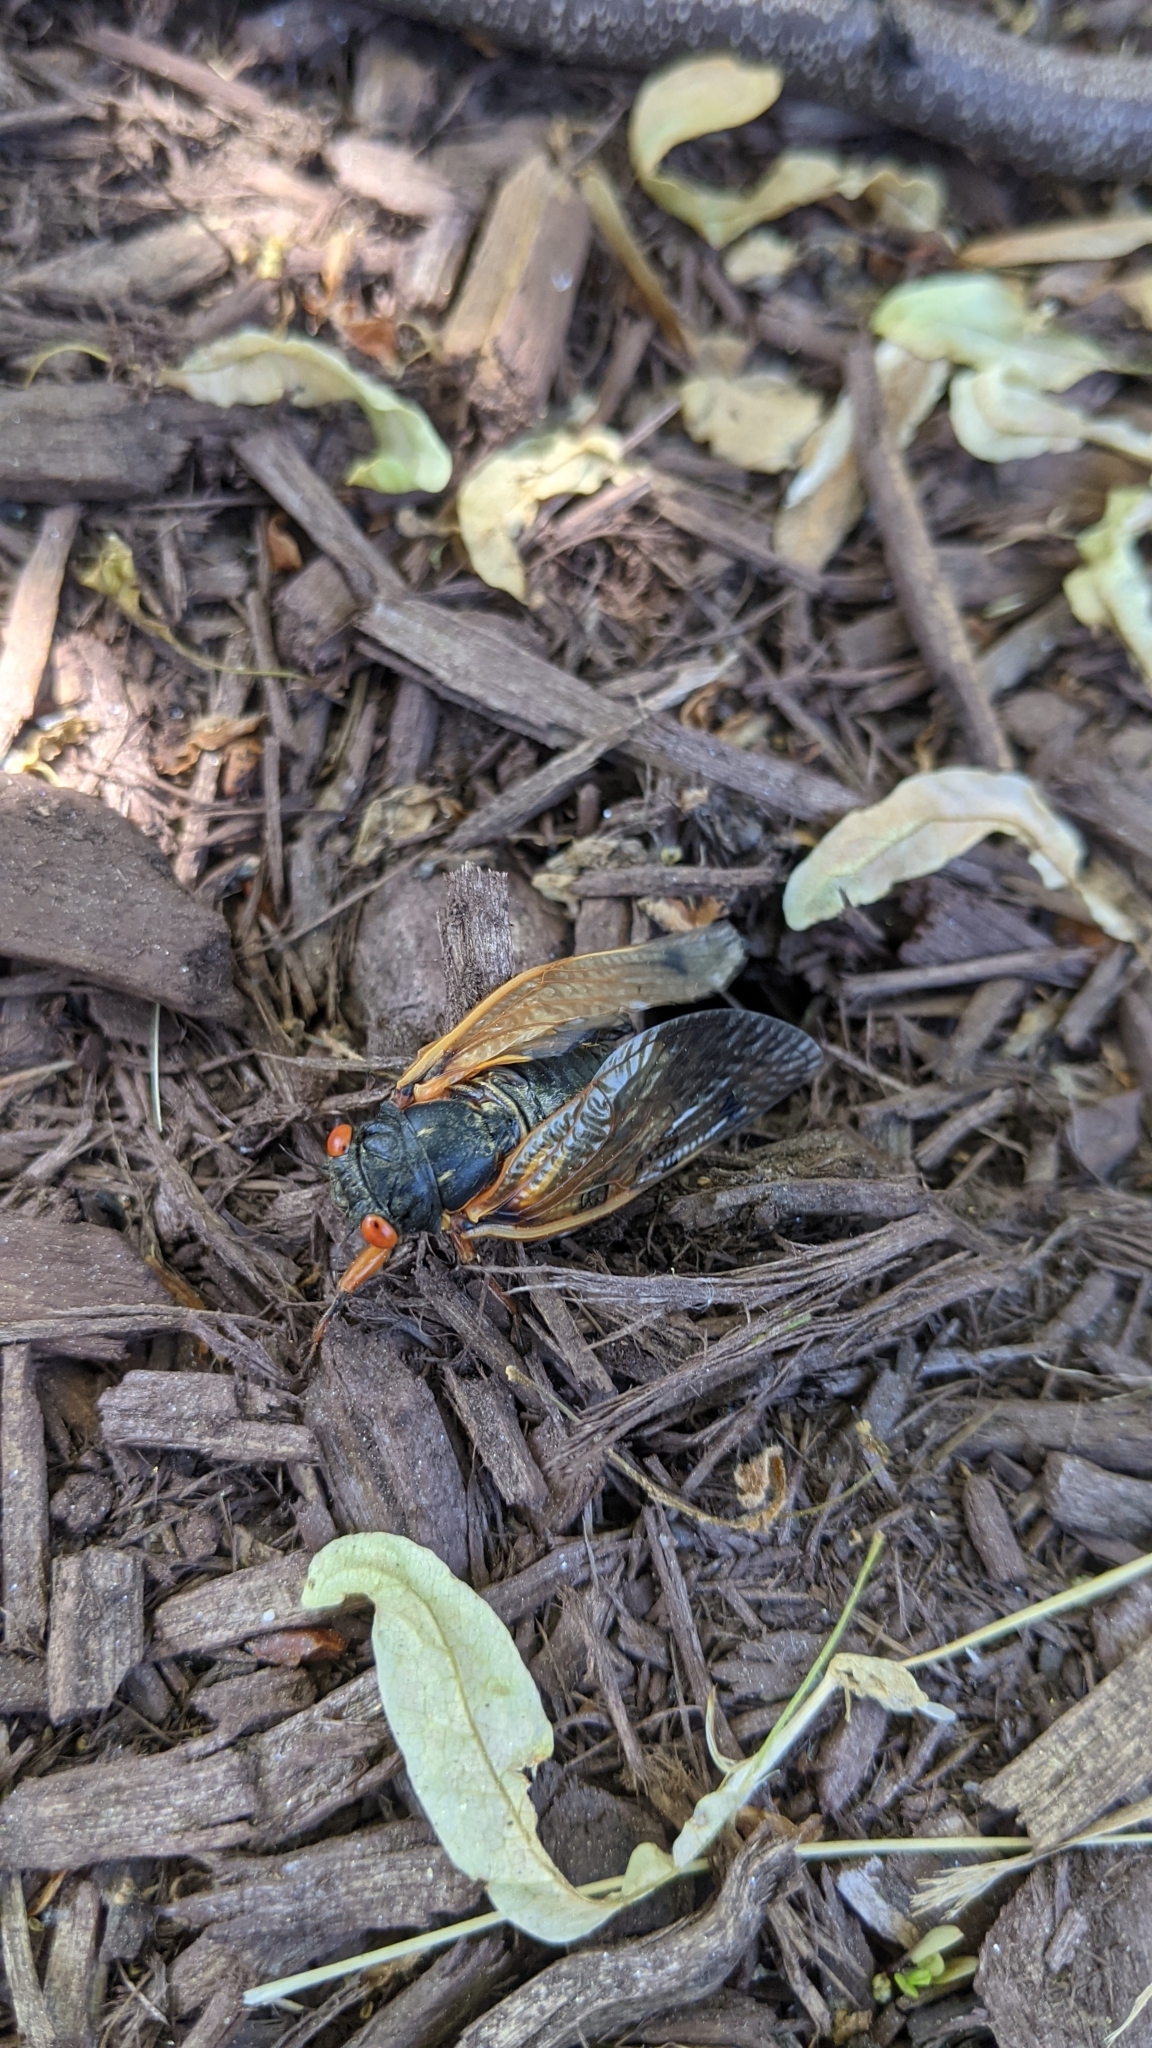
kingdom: Animalia
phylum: Arthropoda
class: Insecta
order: Hemiptera
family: Cicadidae
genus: Magicicada
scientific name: Magicicada
